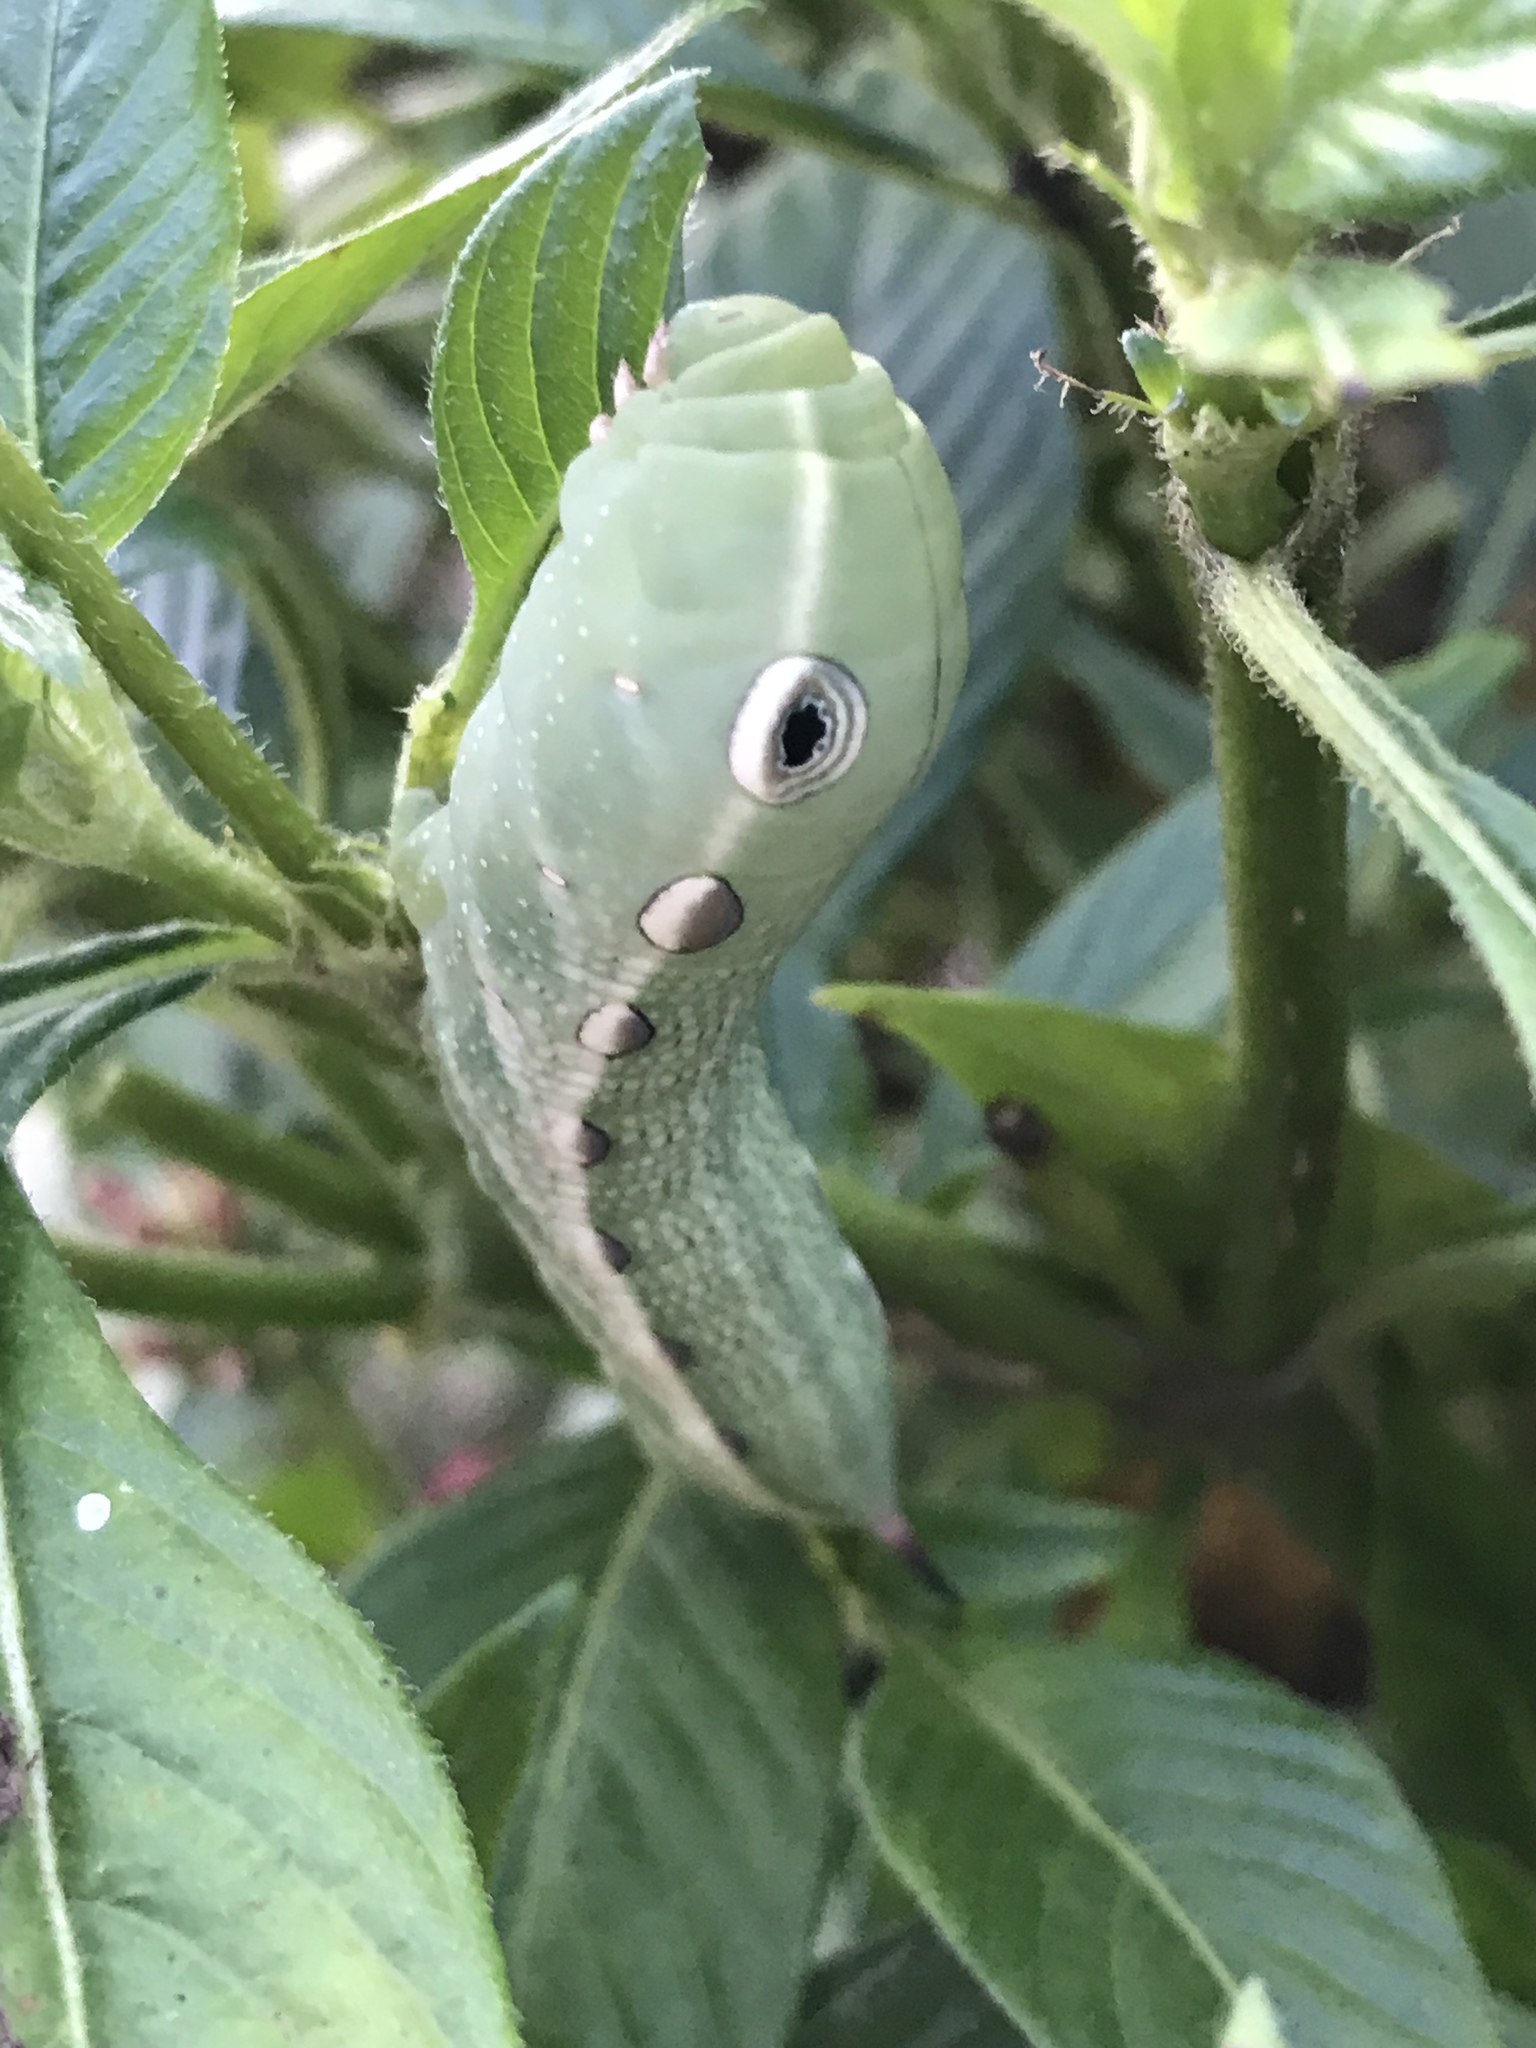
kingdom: Animalia
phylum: Arthropoda
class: Insecta
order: Lepidoptera
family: Sphingidae
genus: Xylophanes
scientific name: Xylophanes tersa
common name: Tersa sphinx
